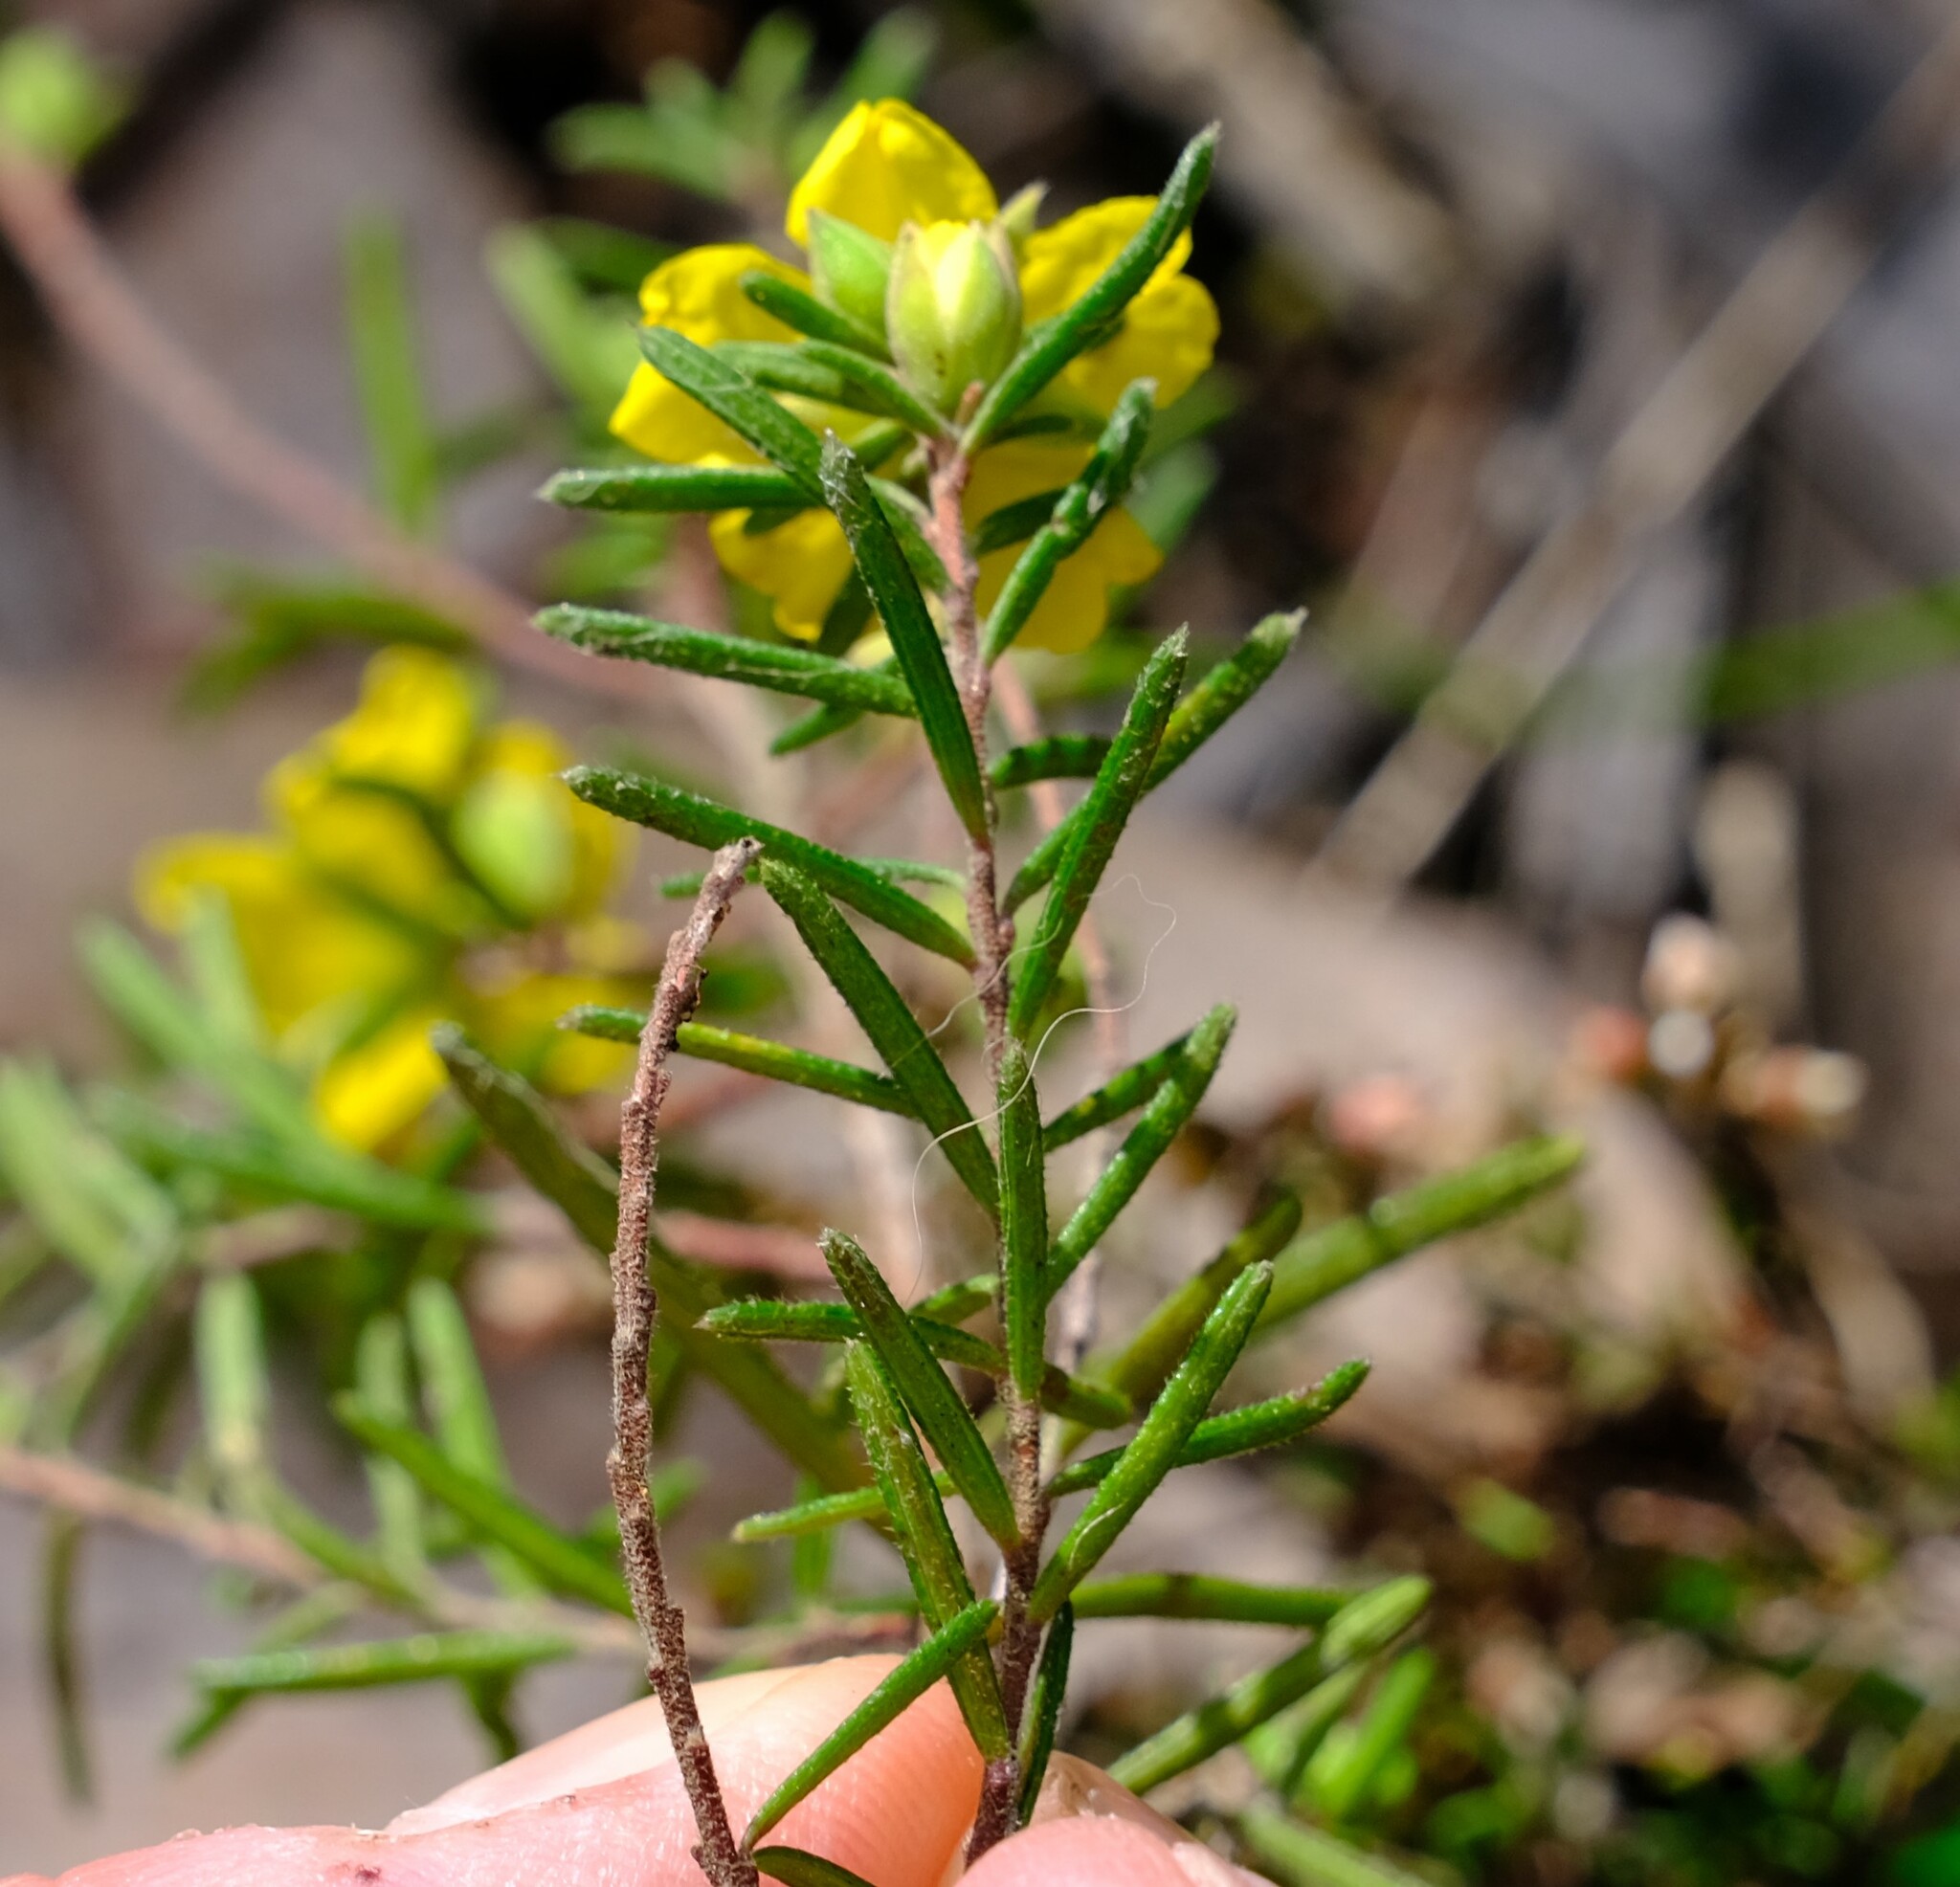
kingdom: Plantae
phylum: Tracheophyta
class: Magnoliopsida
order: Dilleniales
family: Dilleniaceae
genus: Hibbertia
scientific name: Hibbertia riparia
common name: Erect guinea-flower
